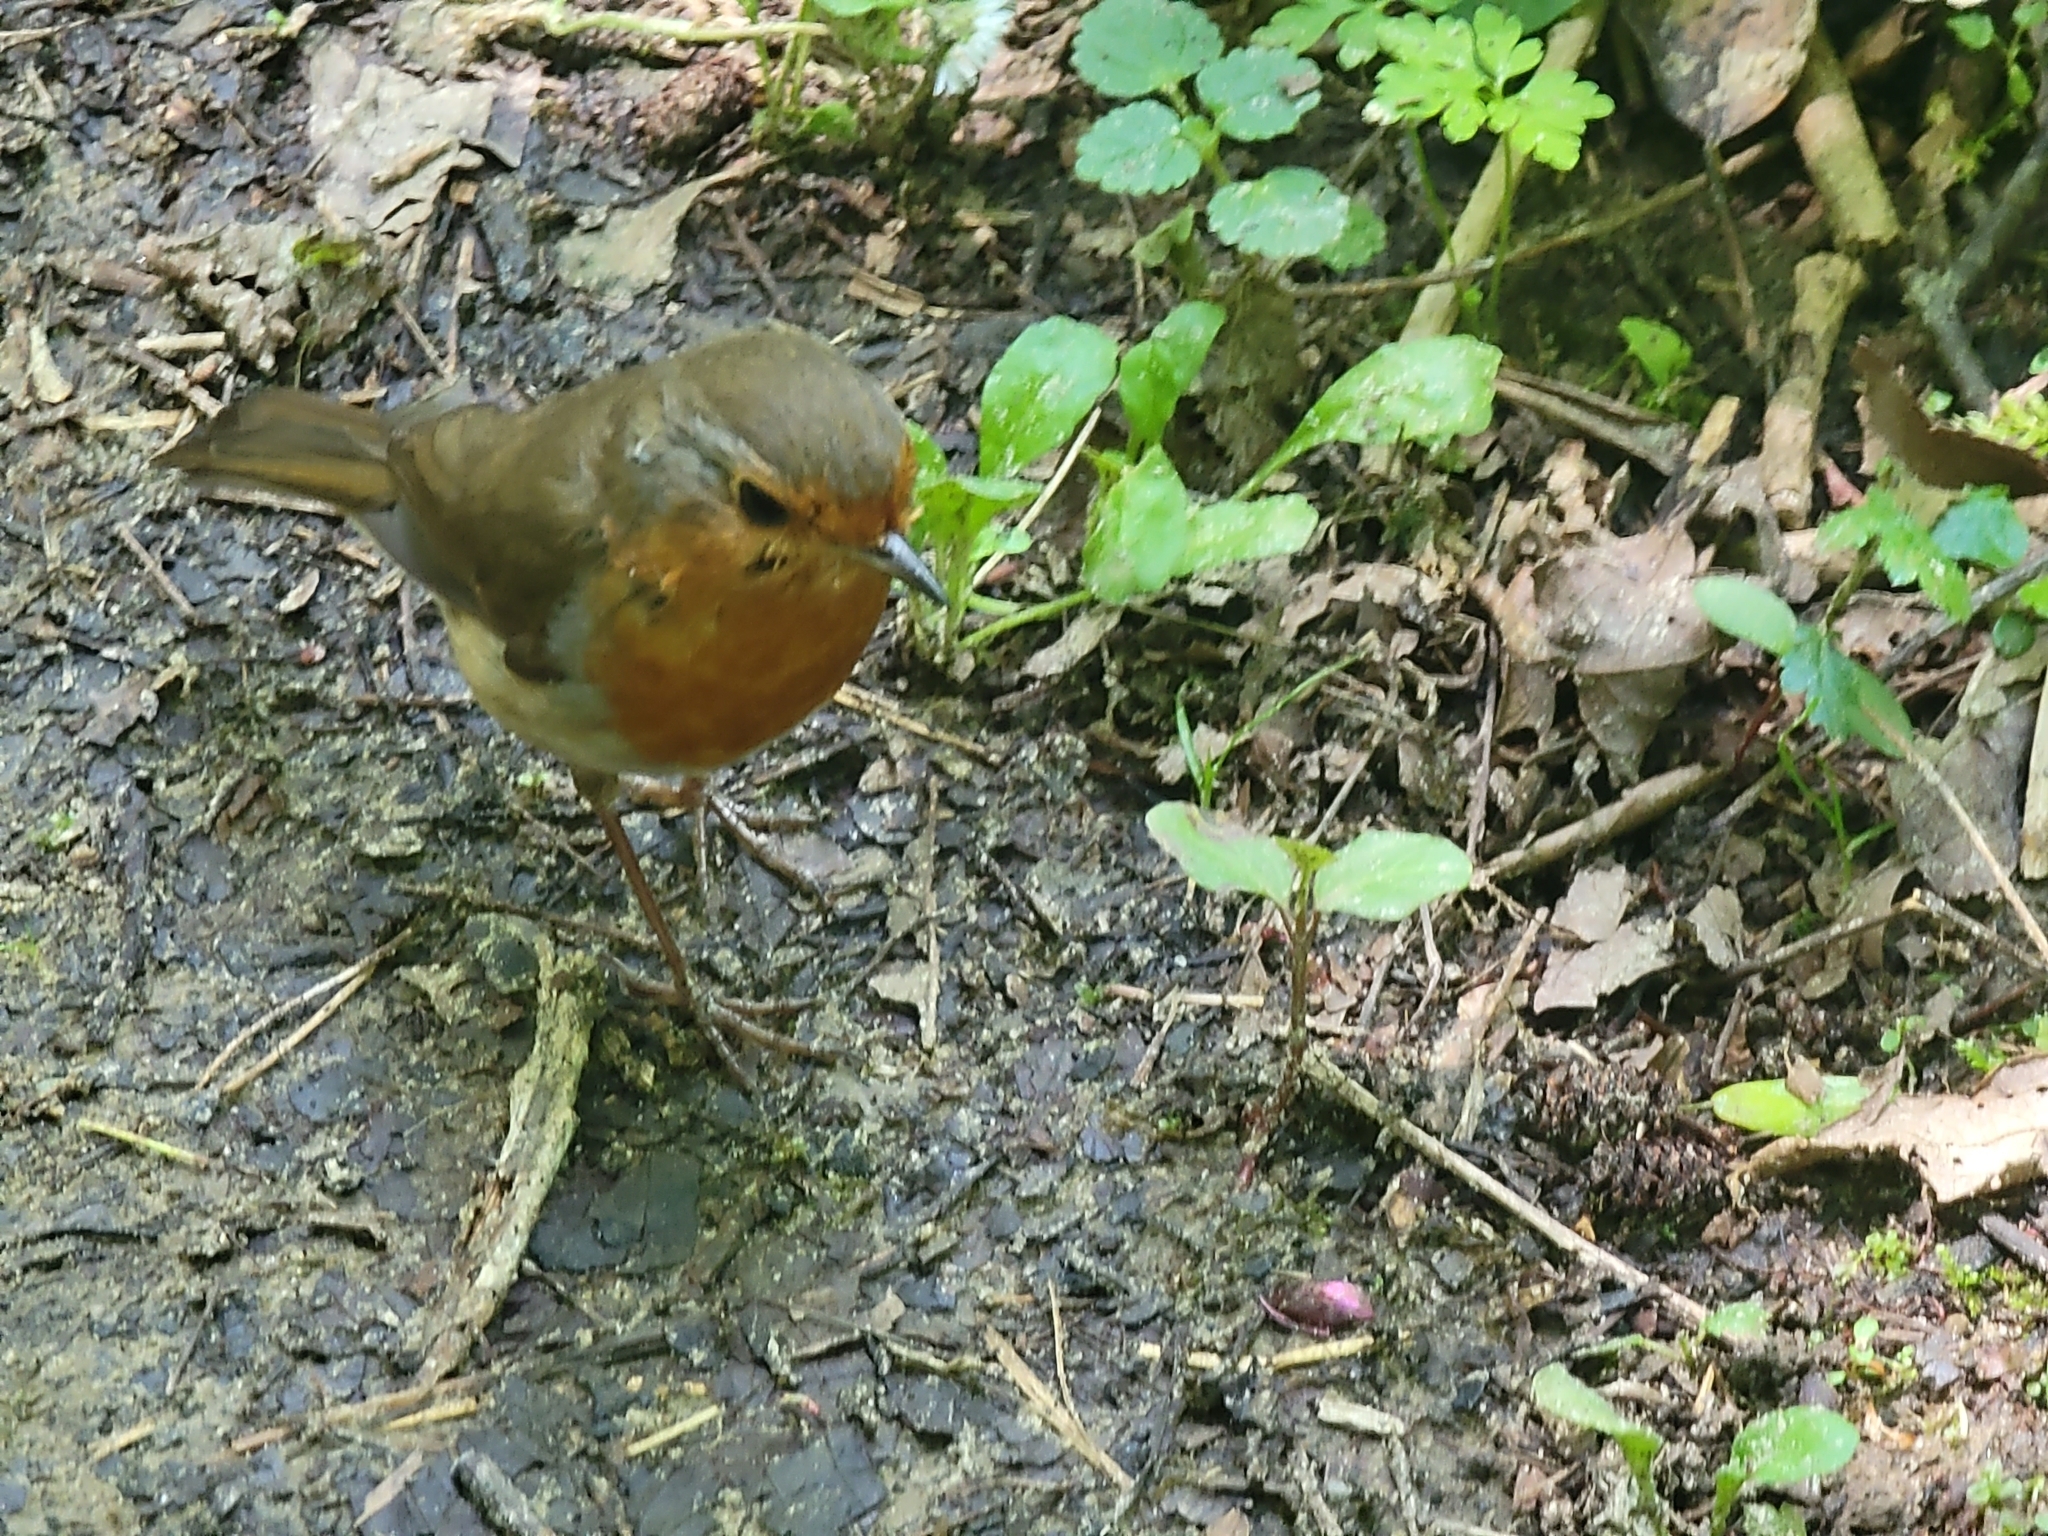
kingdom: Animalia
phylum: Chordata
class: Aves
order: Passeriformes
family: Muscicapidae
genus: Erithacus
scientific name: Erithacus rubecula
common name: European robin
